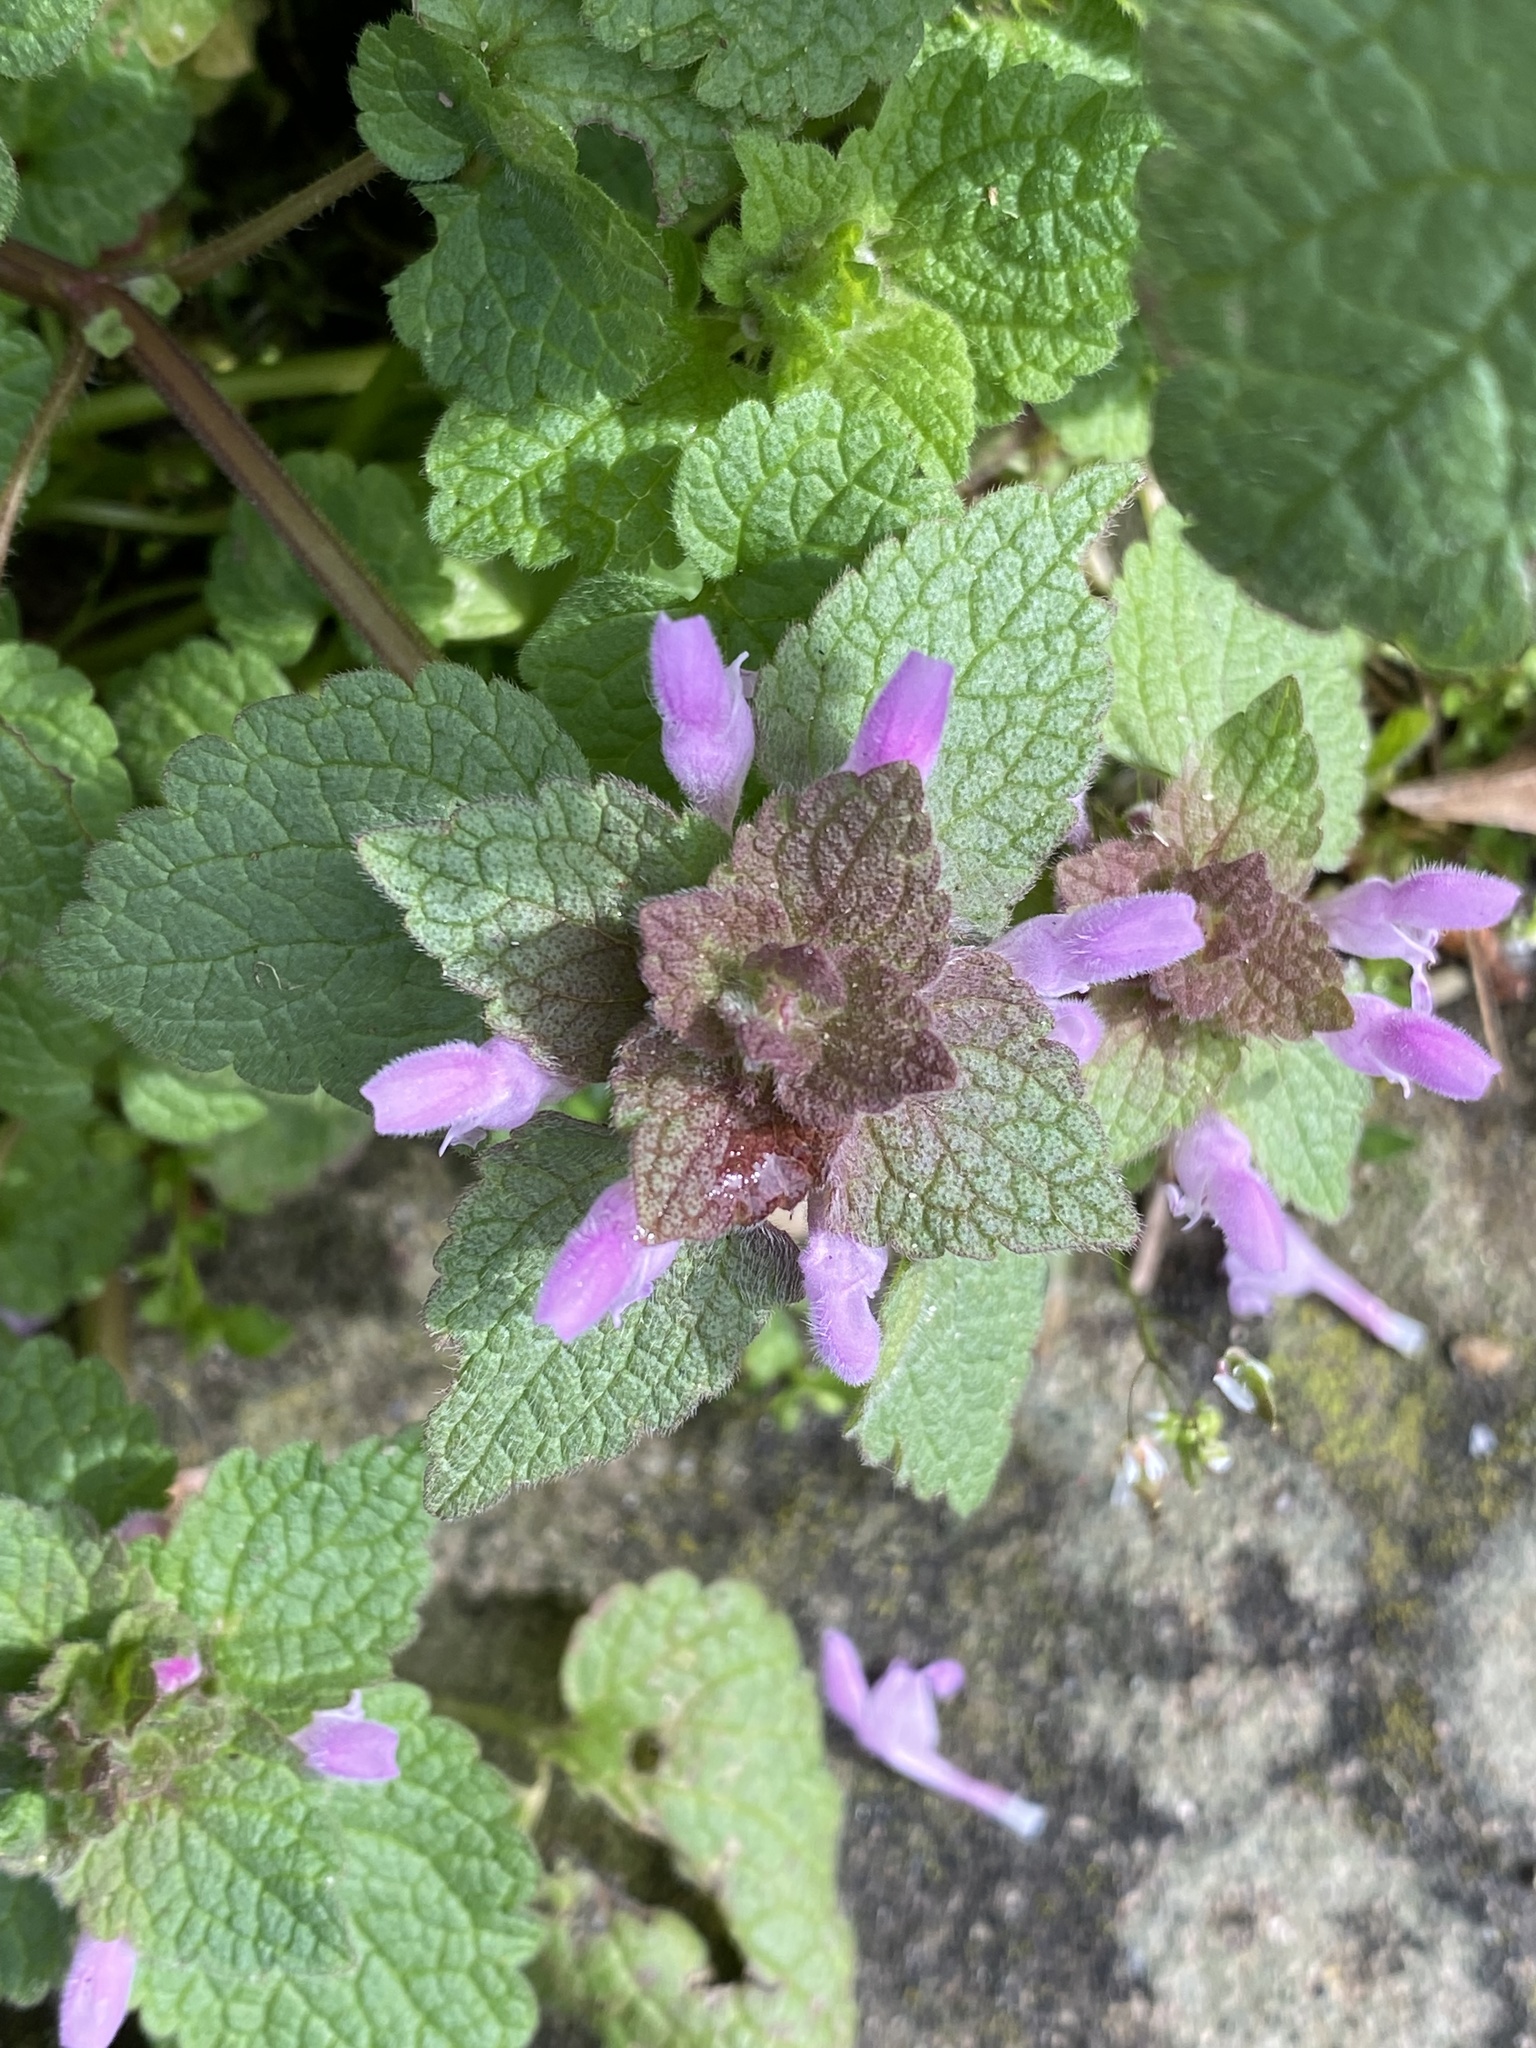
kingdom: Plantae
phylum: Tracheophyta
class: Magnoliopsida
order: Lamiales
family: Lamiaceae
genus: Lamium
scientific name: Lamium purpureum
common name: Red dead-nettle
